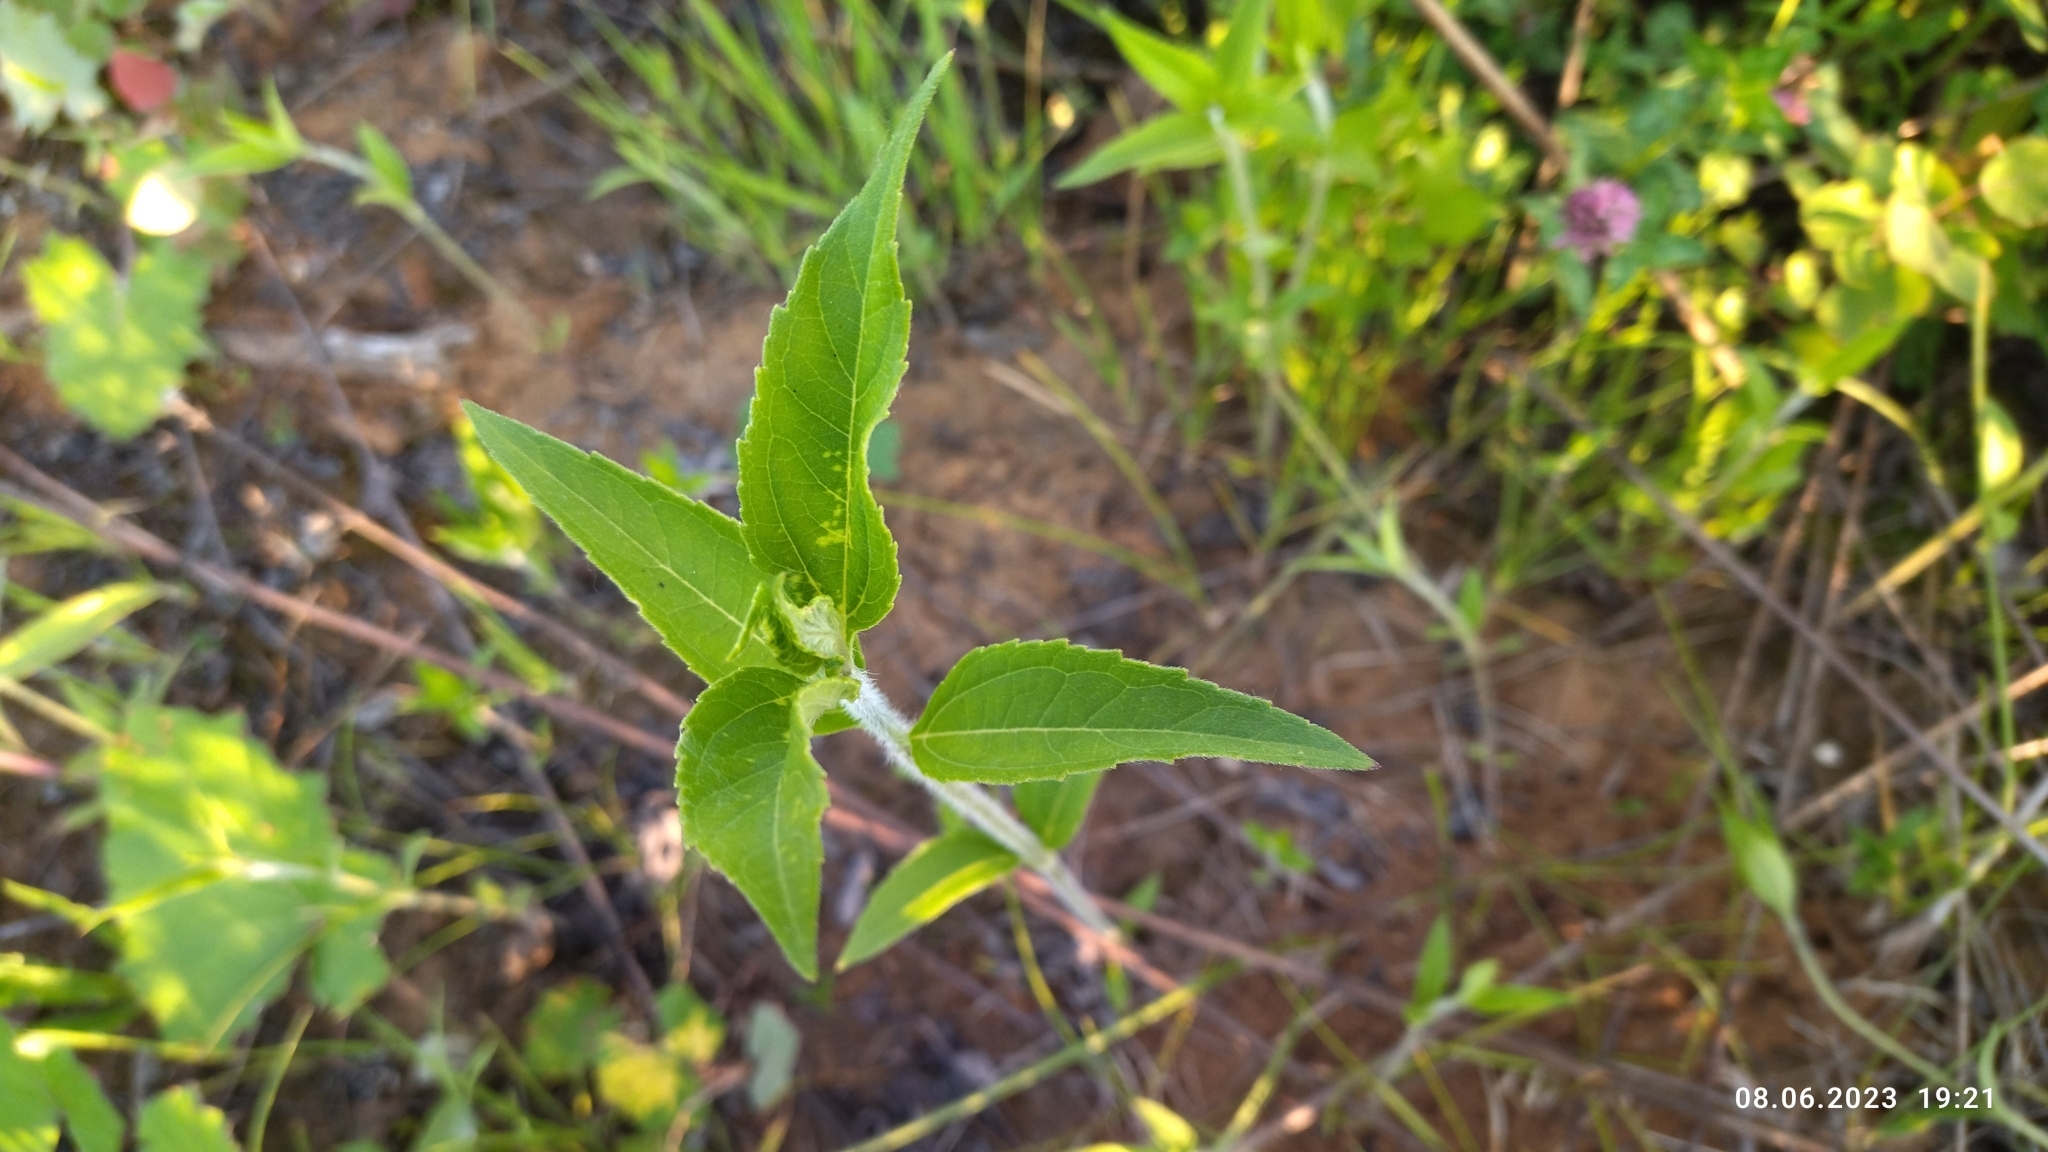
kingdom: Plantae
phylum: Tracheophyta
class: Magnoliopsida
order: Asterales
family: Asteraceae
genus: Helianthus
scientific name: Helianthus tuberosus
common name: Jerusalem artichoke
